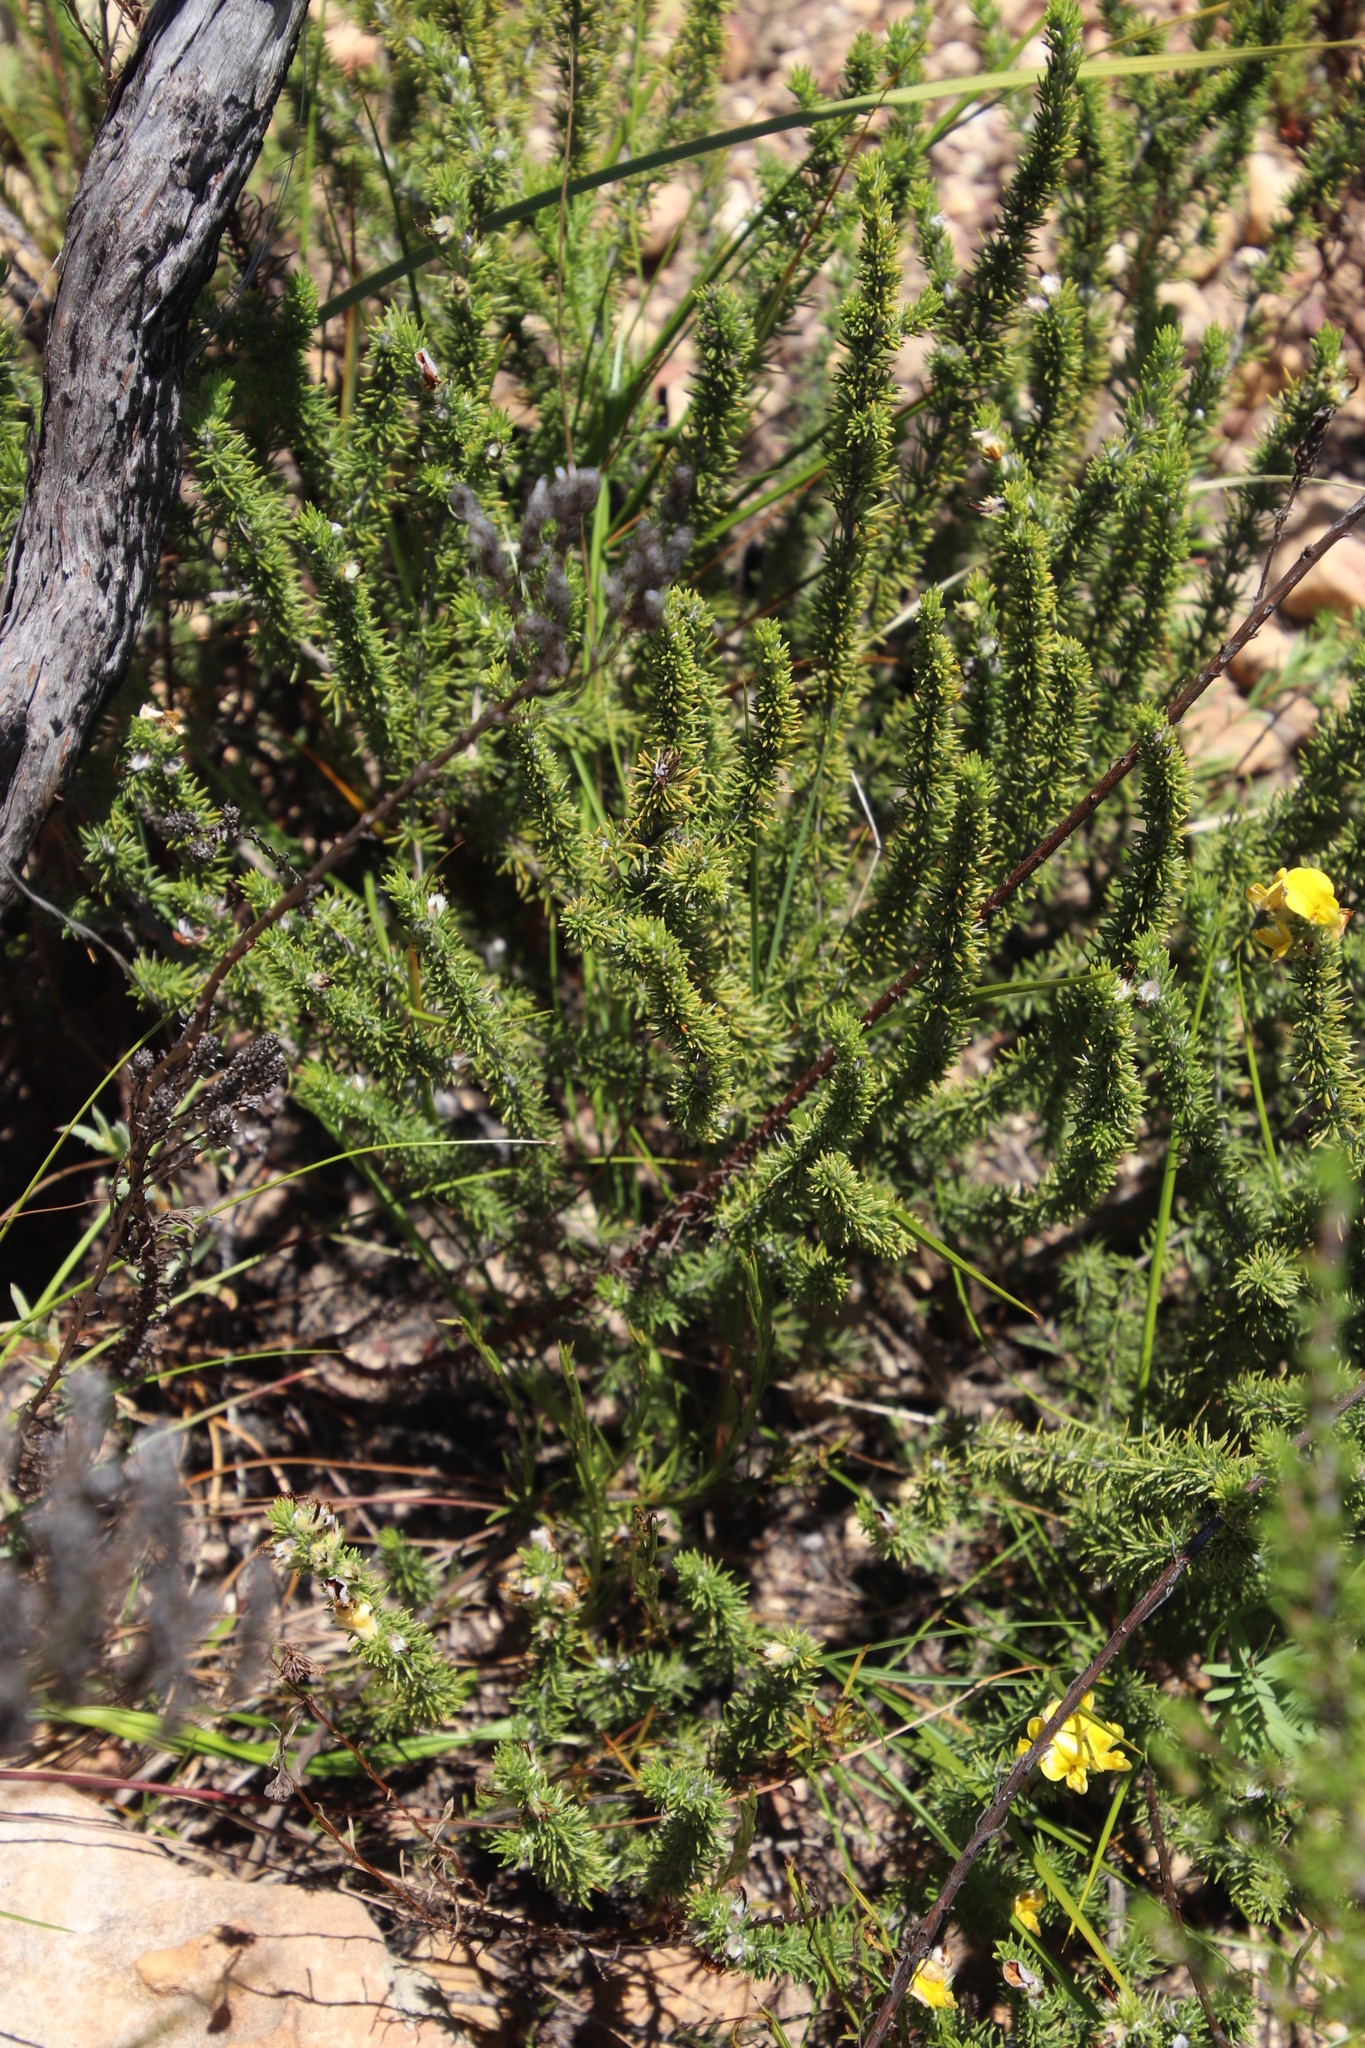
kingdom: Plantae
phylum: Tracheophyta
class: Magnoliopsida
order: Fabales
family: Fabaceae
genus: Aspalathus
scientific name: Aspalathus laricifolia
